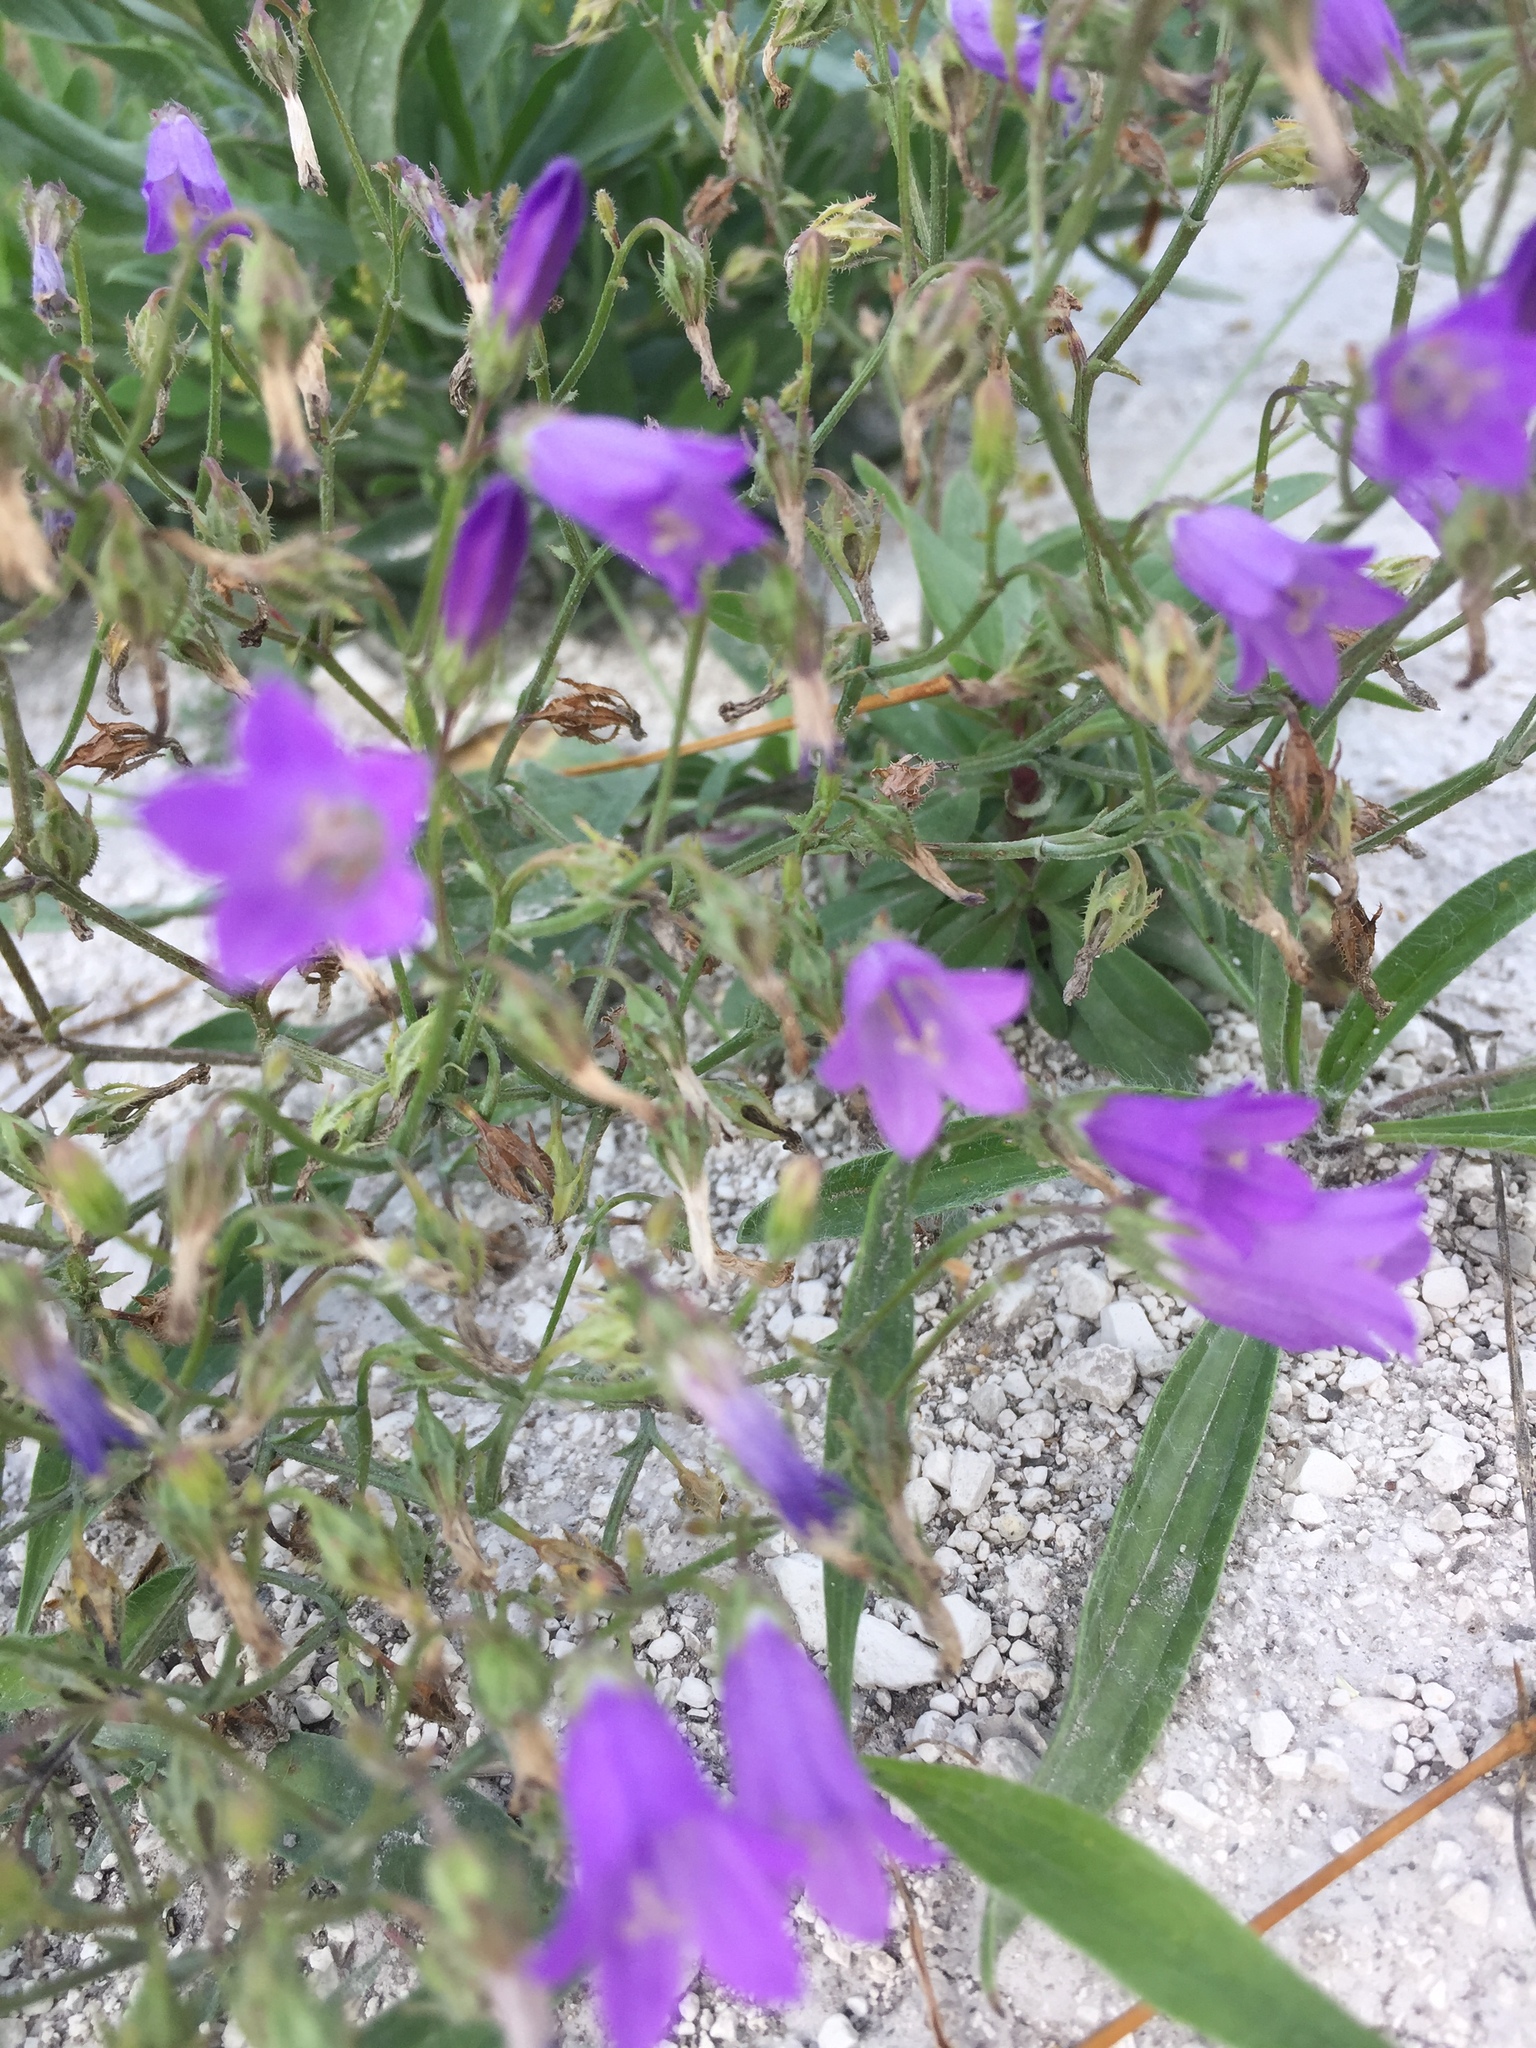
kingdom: Plantae
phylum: Tracheophyta
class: Magnoliopsida
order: Asterales
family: Campanulaceae
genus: Campanula
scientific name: Campanula sibirica
